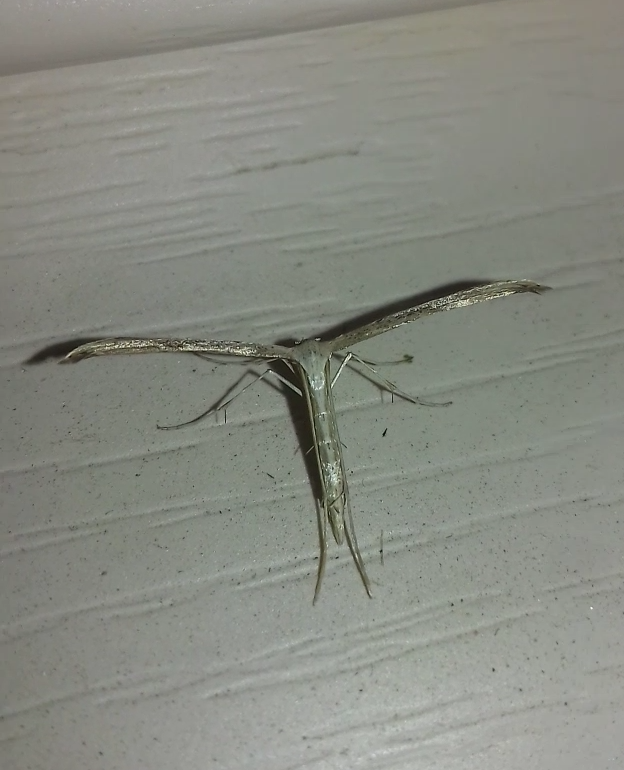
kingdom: Animalia
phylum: Arthropoda
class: Insecta
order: Lepidoptera
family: Pterophoridae
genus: Emmelina
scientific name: Emmelina monodactyla
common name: Common plume
